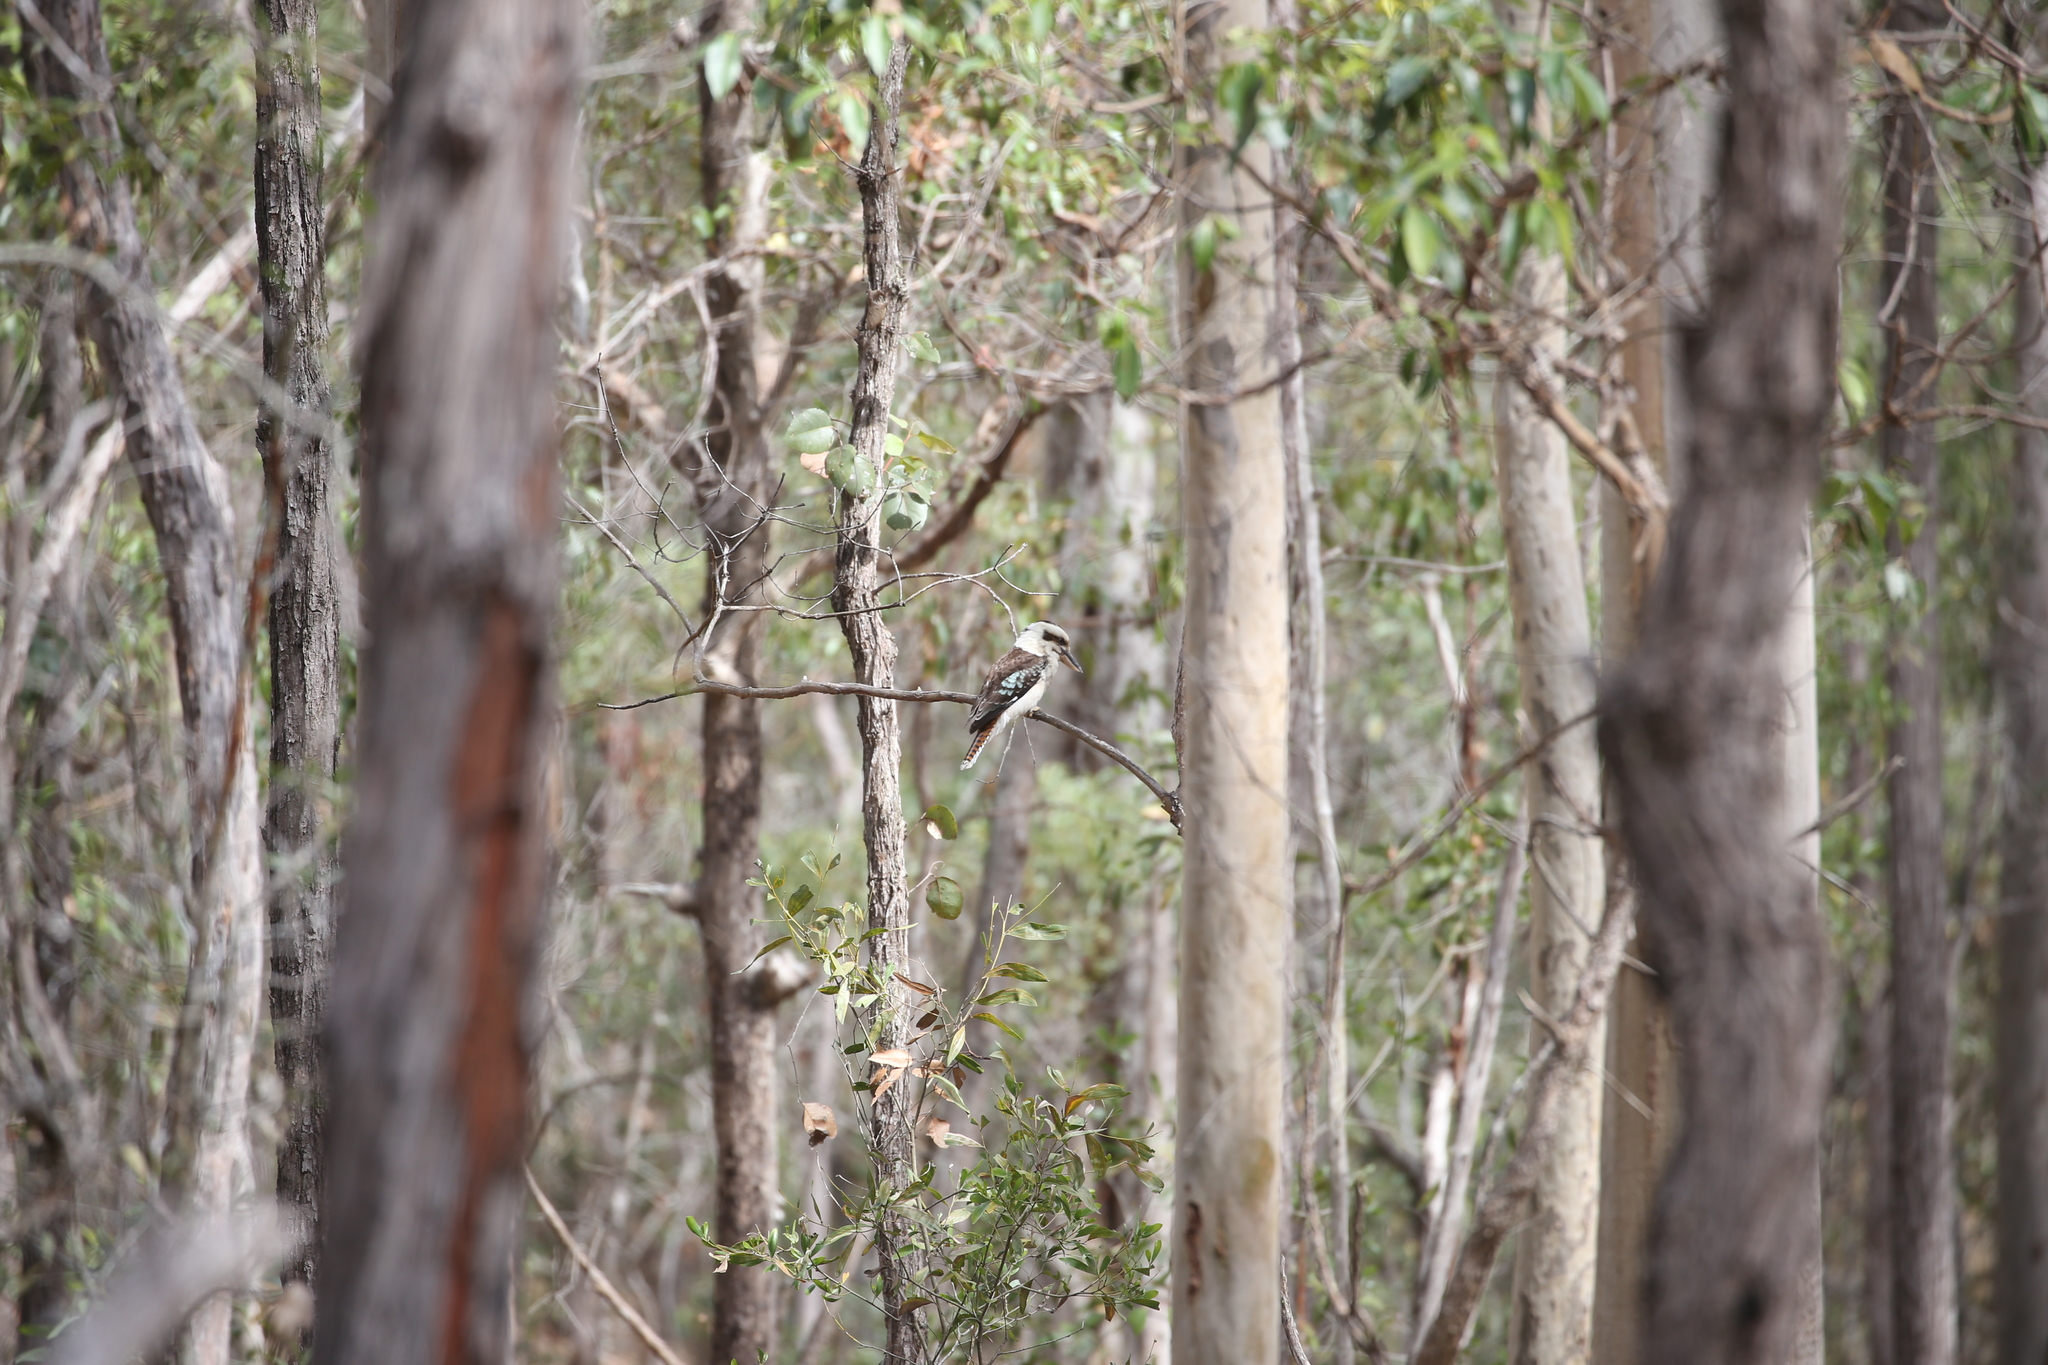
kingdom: Animalia
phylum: Chordata
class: Aves
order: Coraciiformes
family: Alcedinidae
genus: Dacelo
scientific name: Dacelo novaeguineae
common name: Laughing kookaburra
